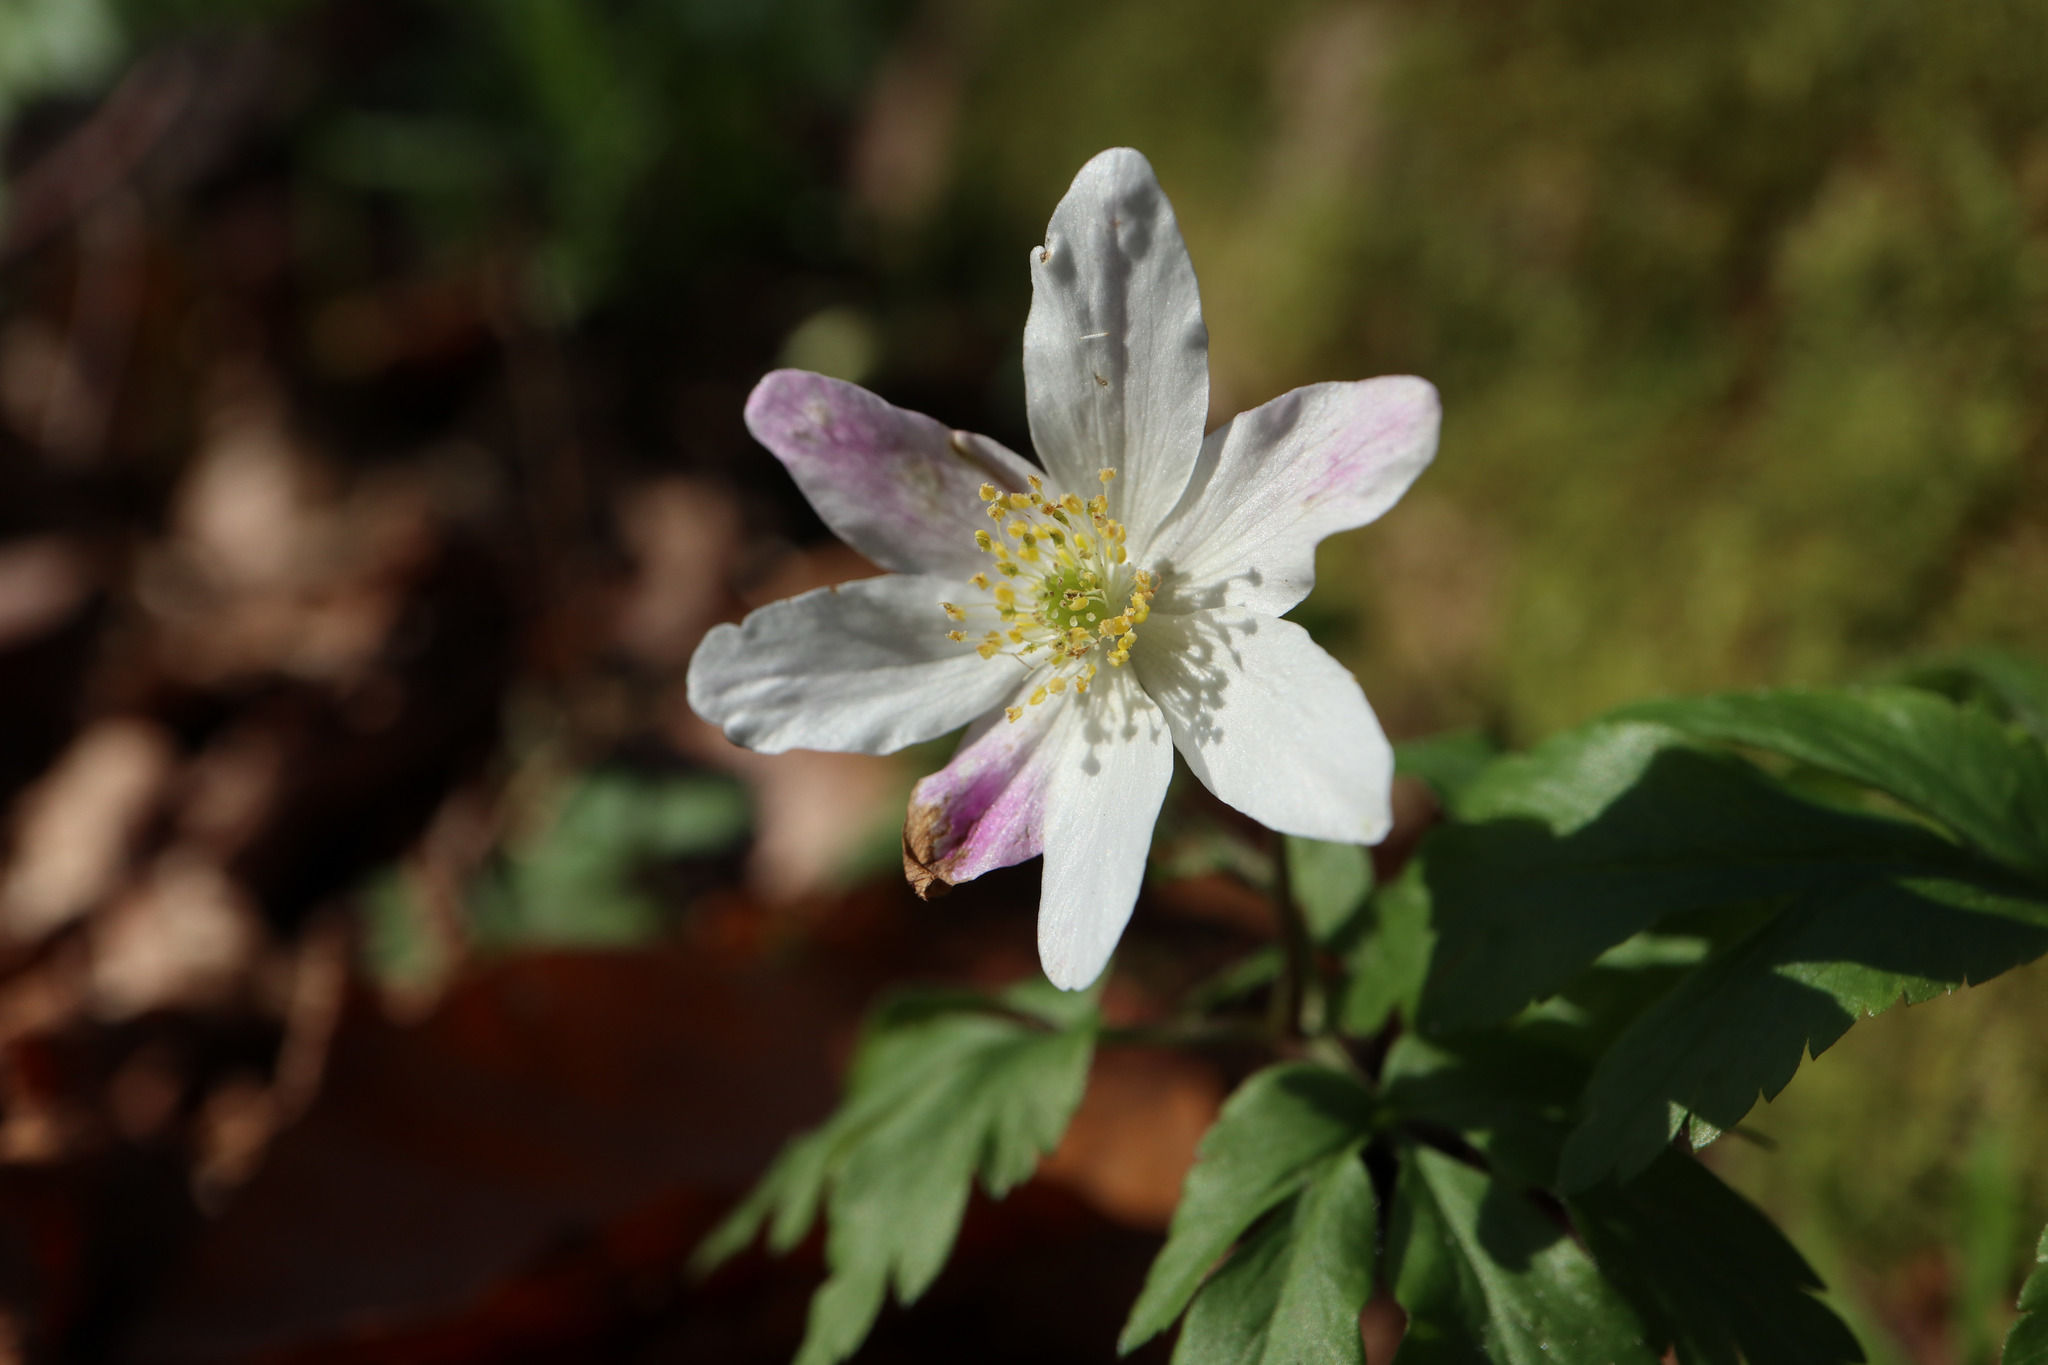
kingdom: Plantae
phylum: Tracheophyta
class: Magnoliopsida
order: Ranunculales
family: Ranunculaceae
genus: Anemone
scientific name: Anemone nemorosa
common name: Wood anemone
